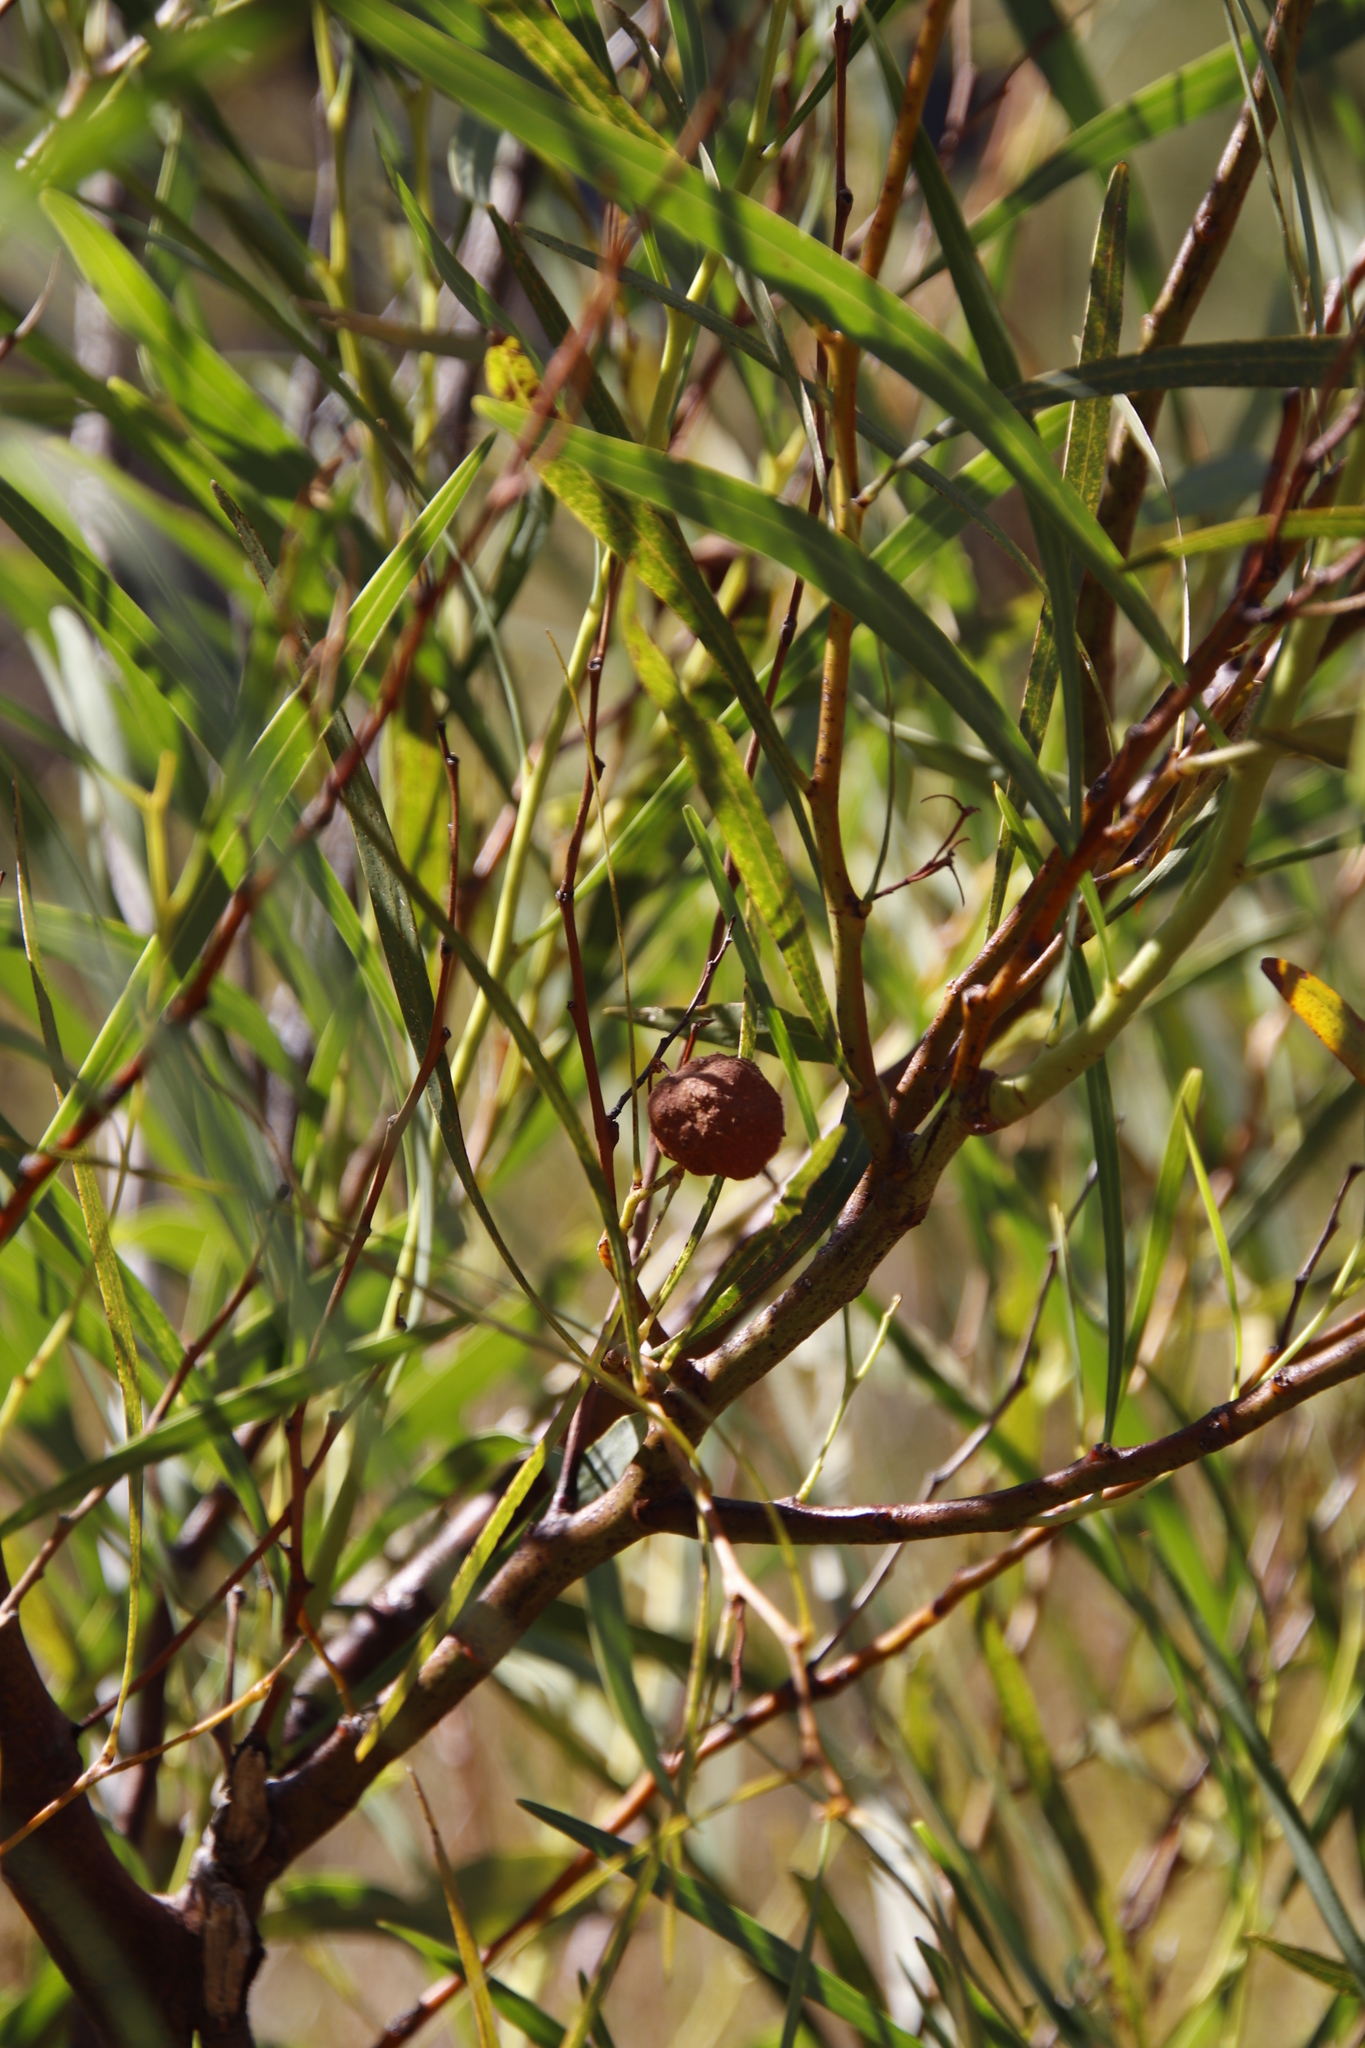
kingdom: Fungi
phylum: Basidiomycota
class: Pucciniomycetes
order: Pucciniales
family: Uromycladiaceae
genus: Uromycladium
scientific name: Uromycladium morrisii
